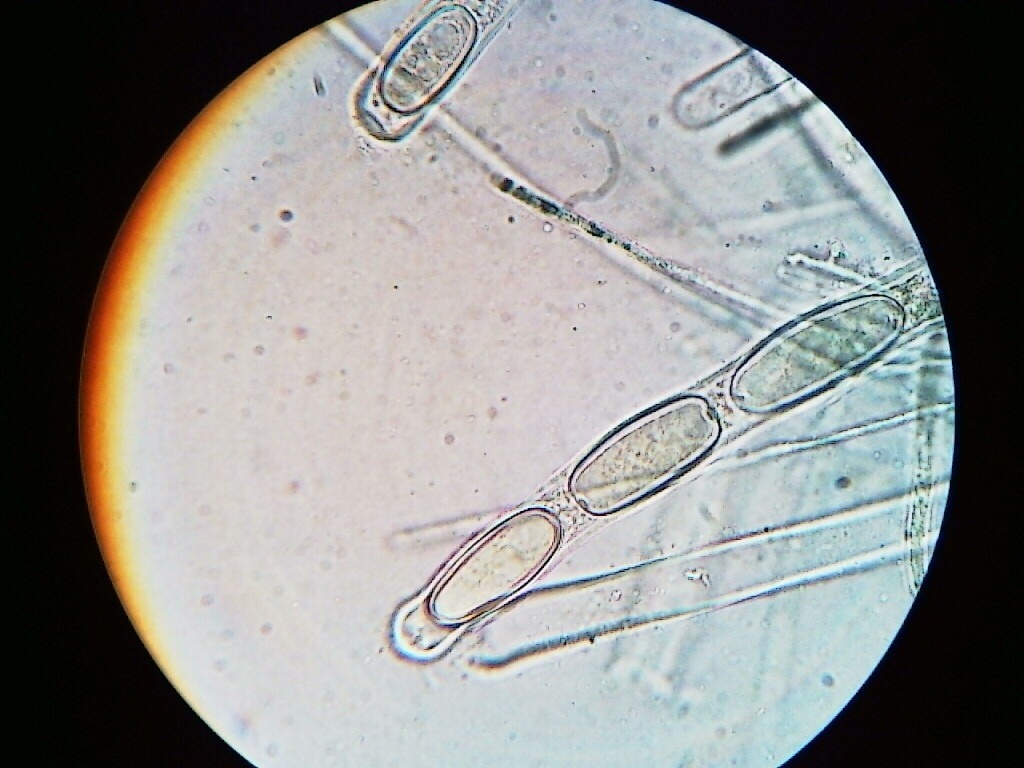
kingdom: Fungi
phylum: Ascomycota
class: Pezizomycetes
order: Pezizales
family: Sarcoscyphaceae
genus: Sarcoscypha
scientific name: Sarcoscypha austriaca
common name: Scarlet elfcup
